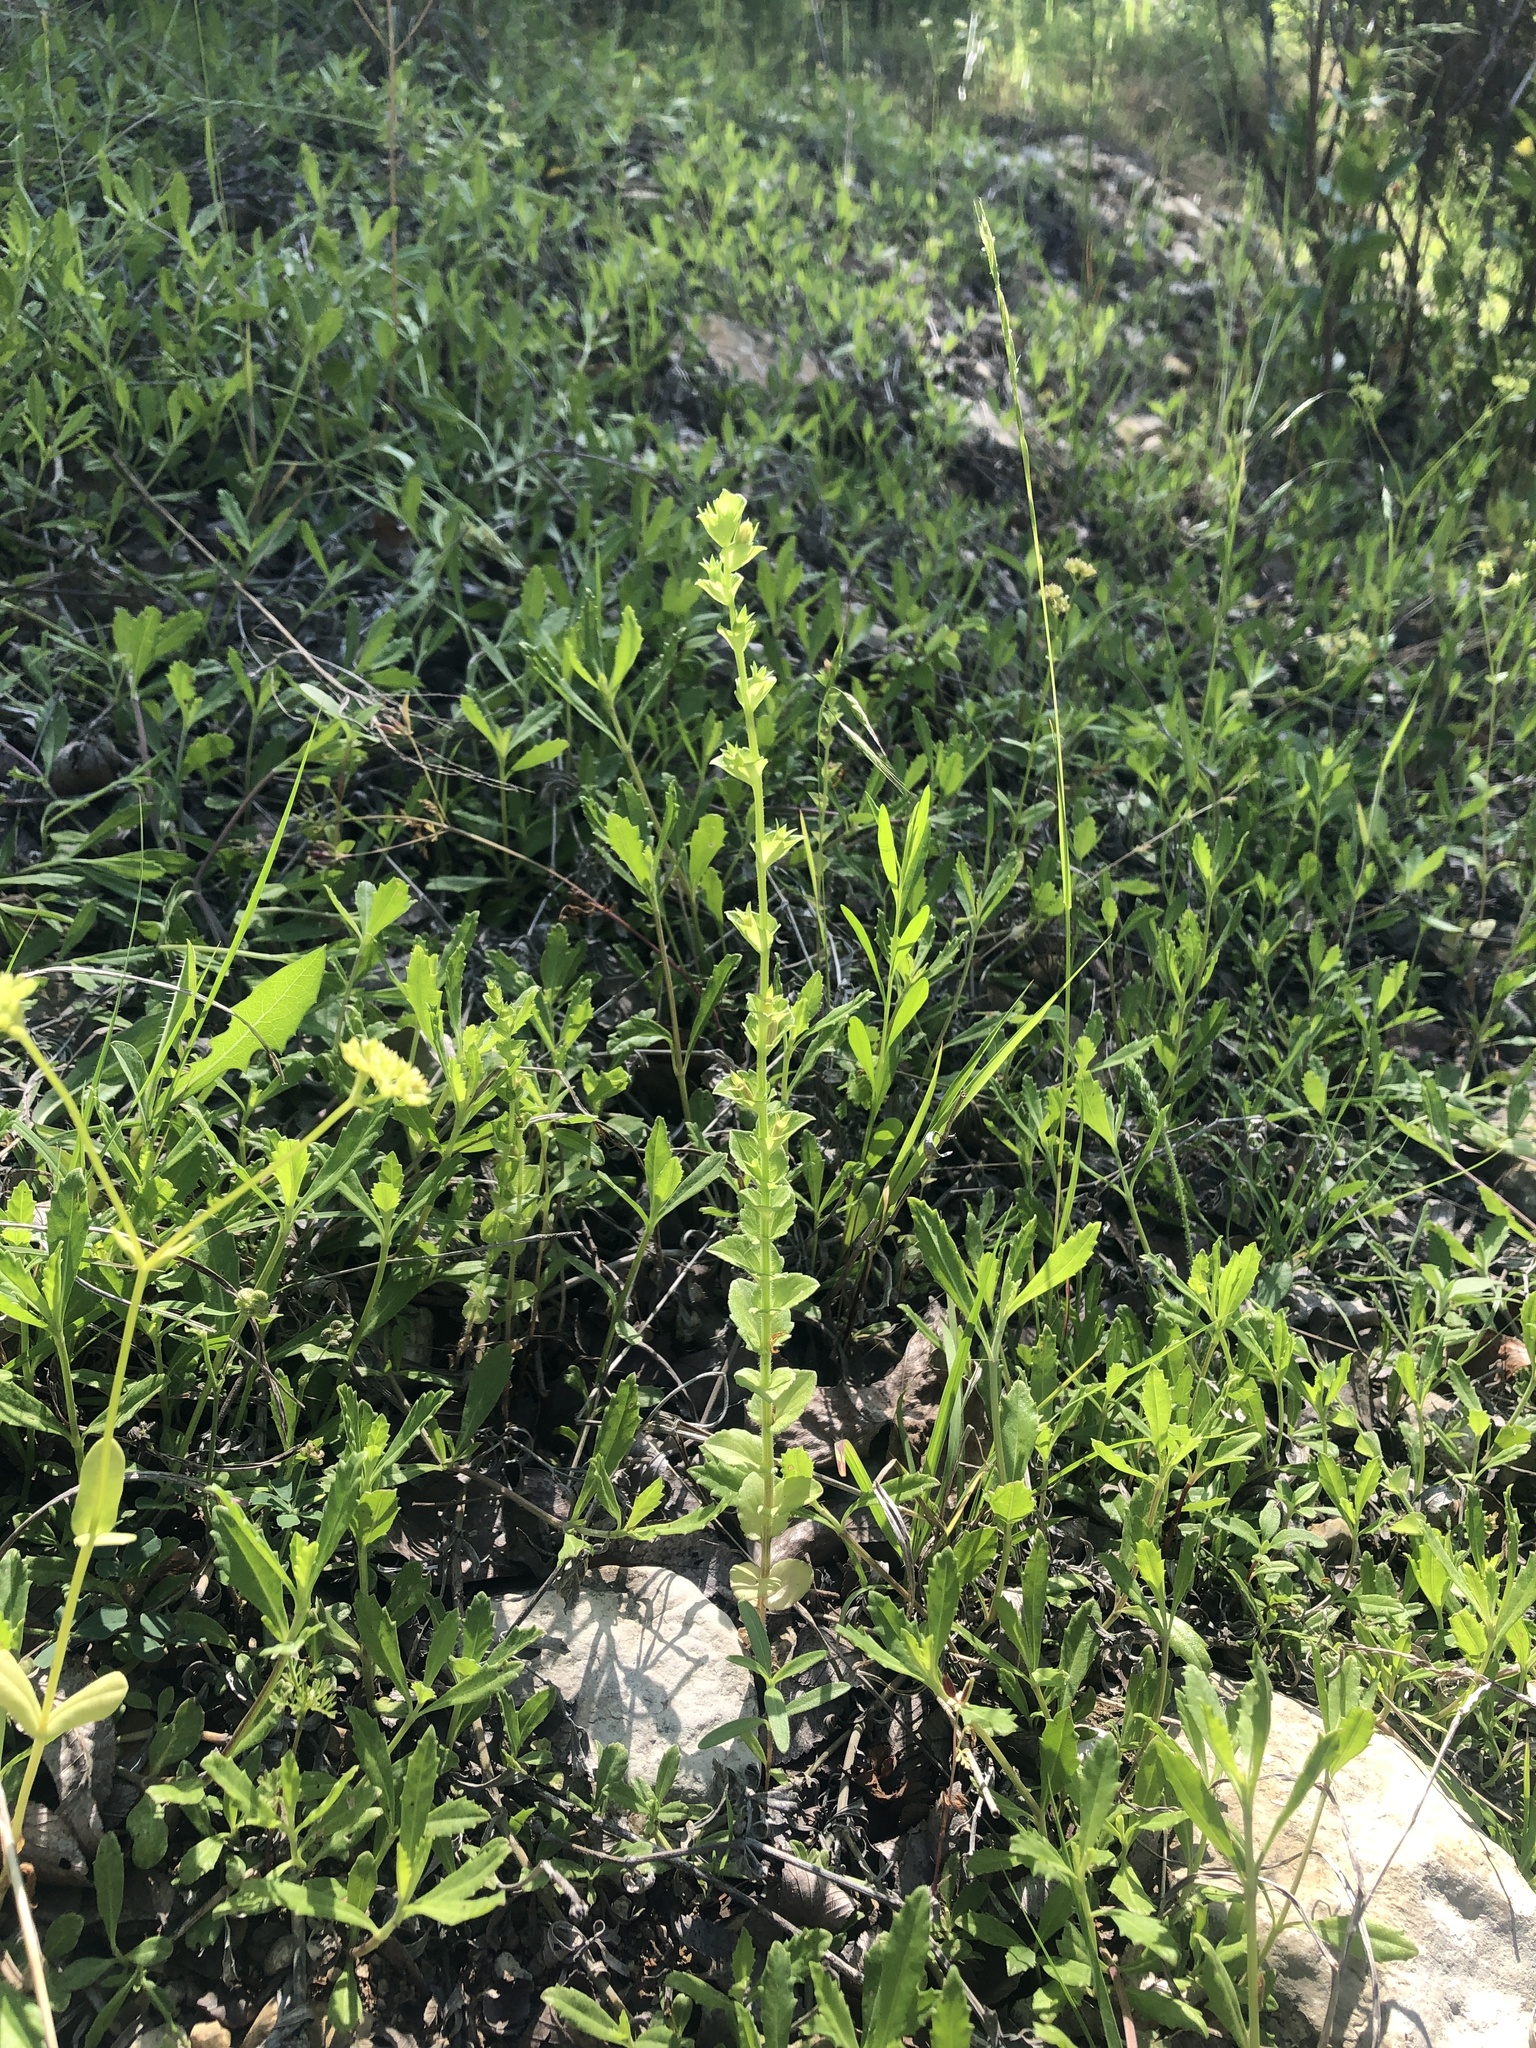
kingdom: Plantae
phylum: Tracheophyta
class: Magnoliopsida
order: Asterales
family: Campanulaceae
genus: Triodanis
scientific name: Triodanis perfoliata
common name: Clasping venus' looking-glass
